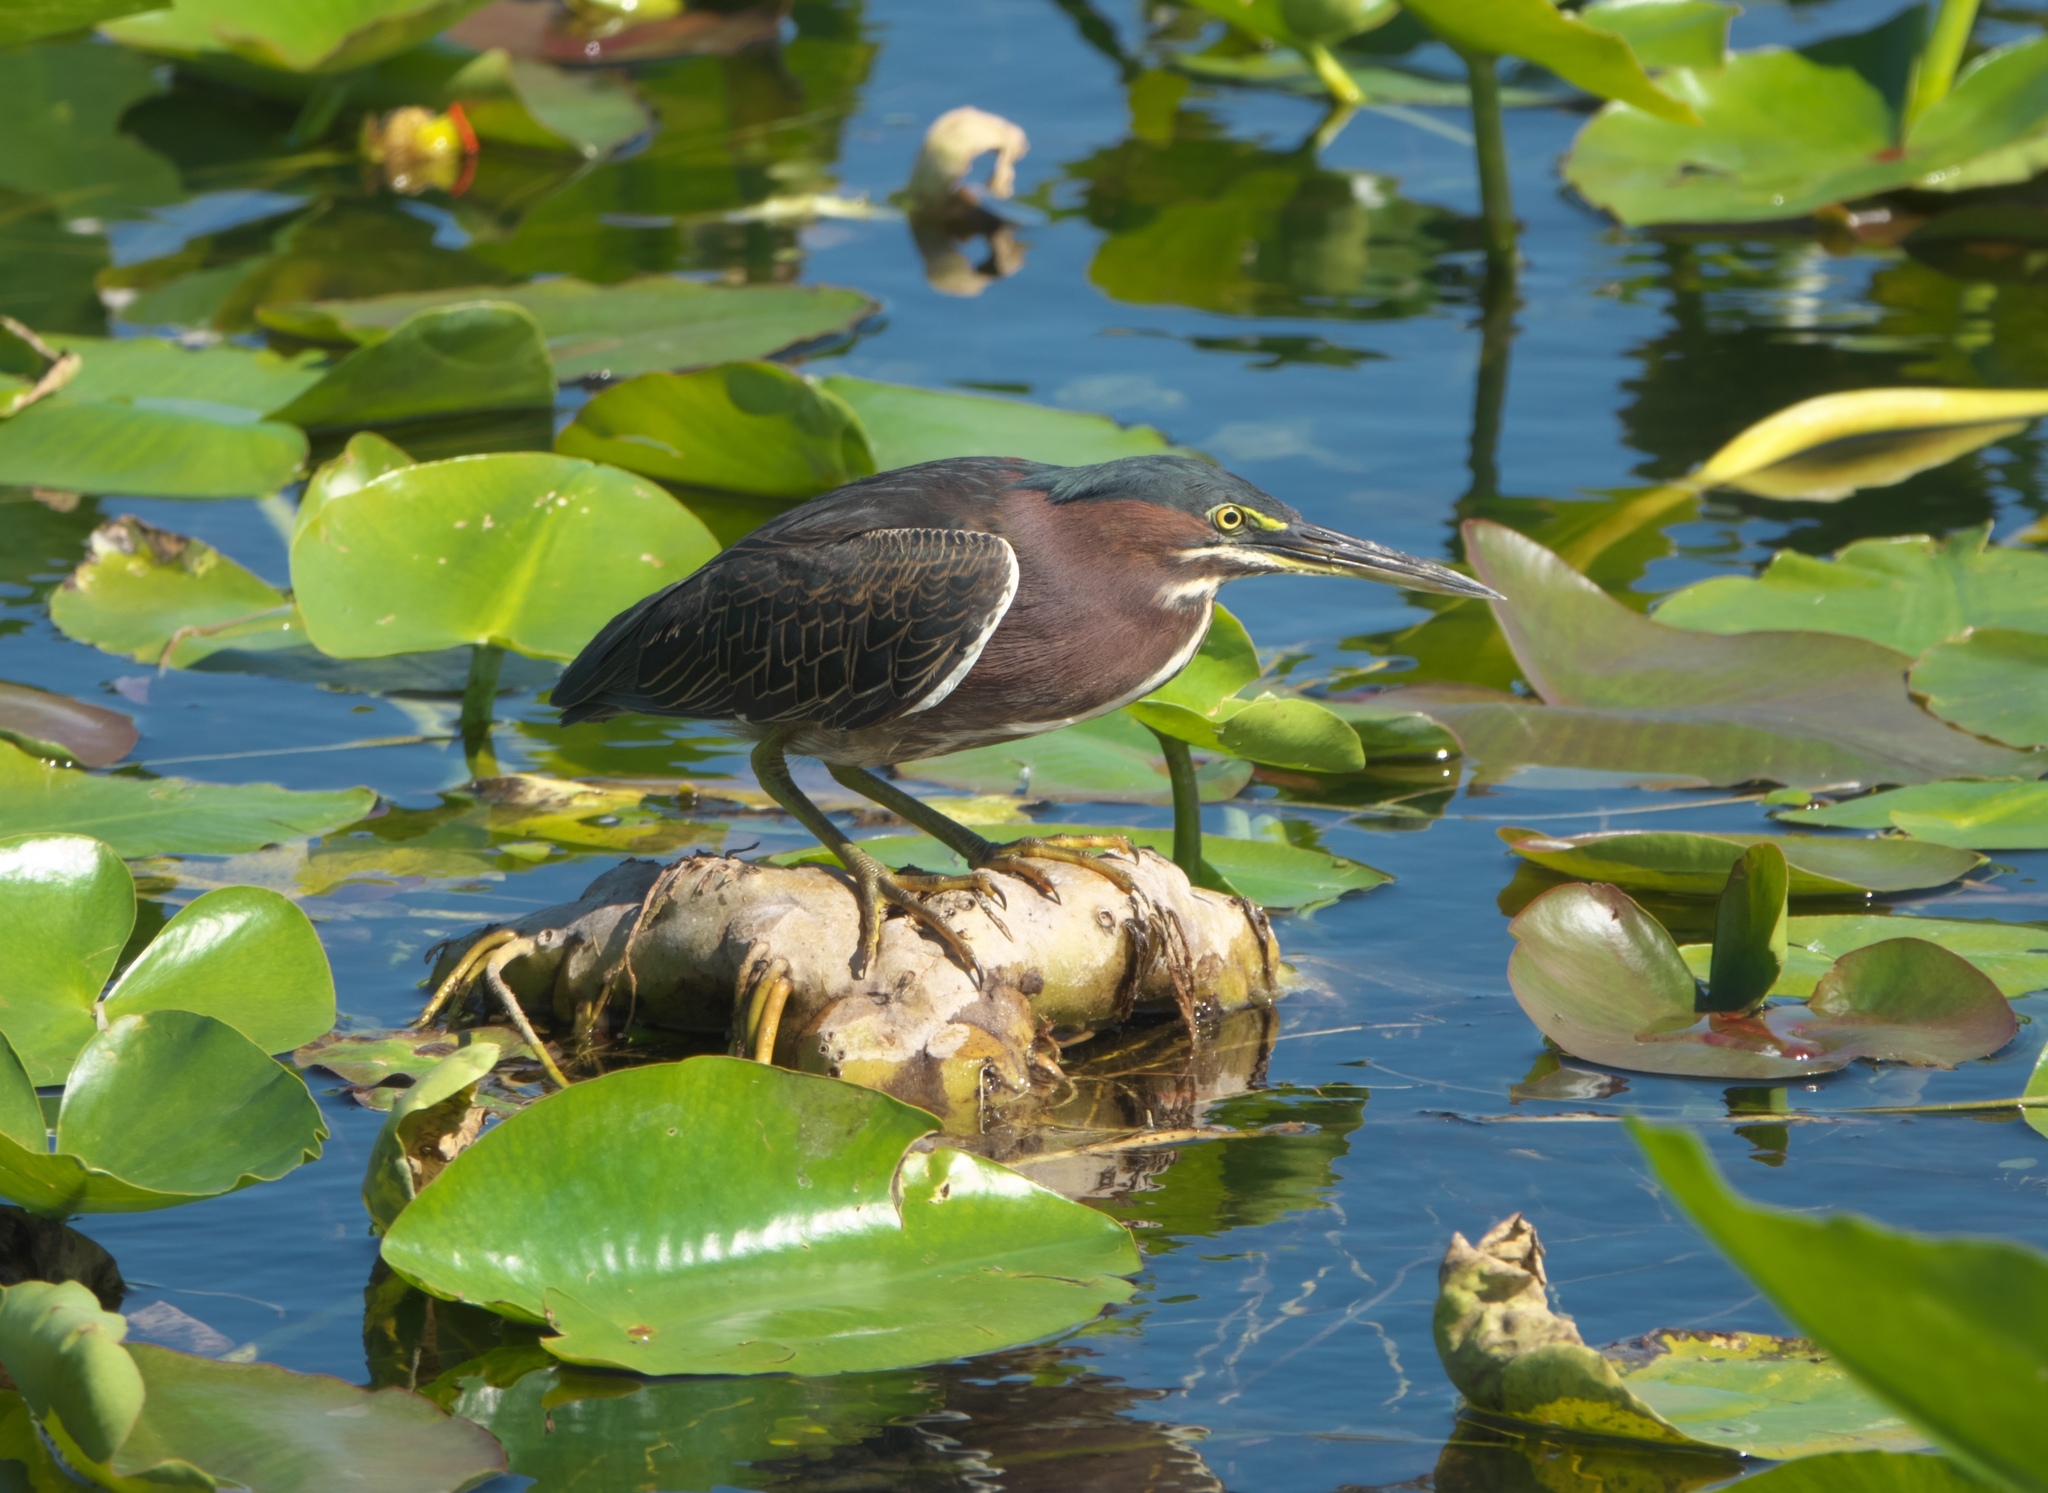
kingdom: Animalia
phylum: Chordata
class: Aves
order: Pelecaniformes
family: Ardeidae
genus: Butorides
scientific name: Butorides virescens
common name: Green heron
